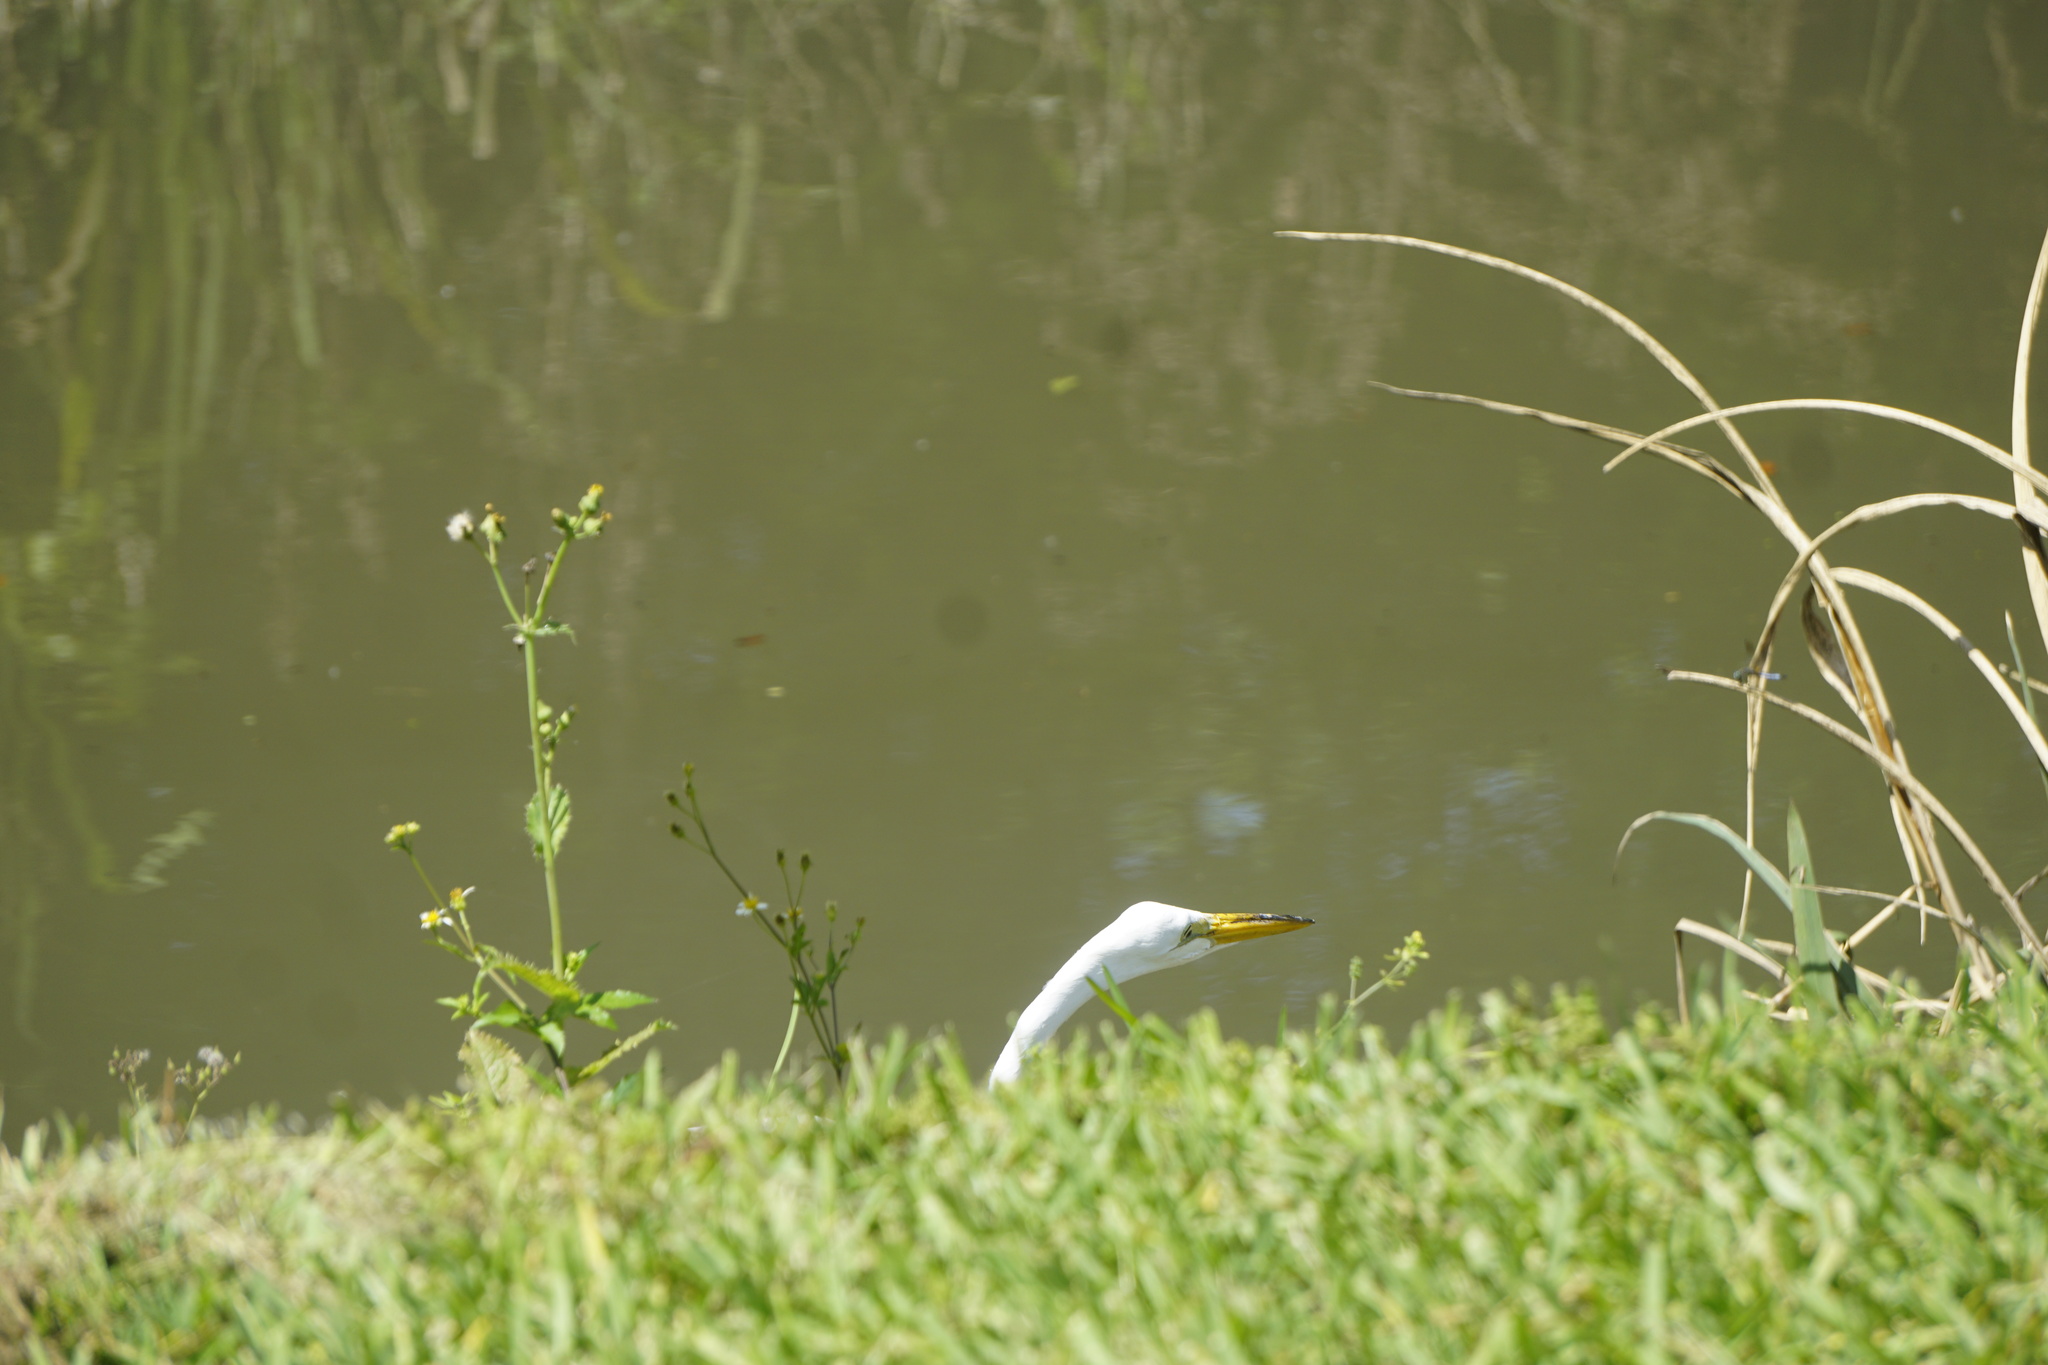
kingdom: Animalia
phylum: Chordata
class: Aves
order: Pelecaniformes
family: Ardeidae
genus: Ardea
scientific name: Ardea alba
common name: Great egret
